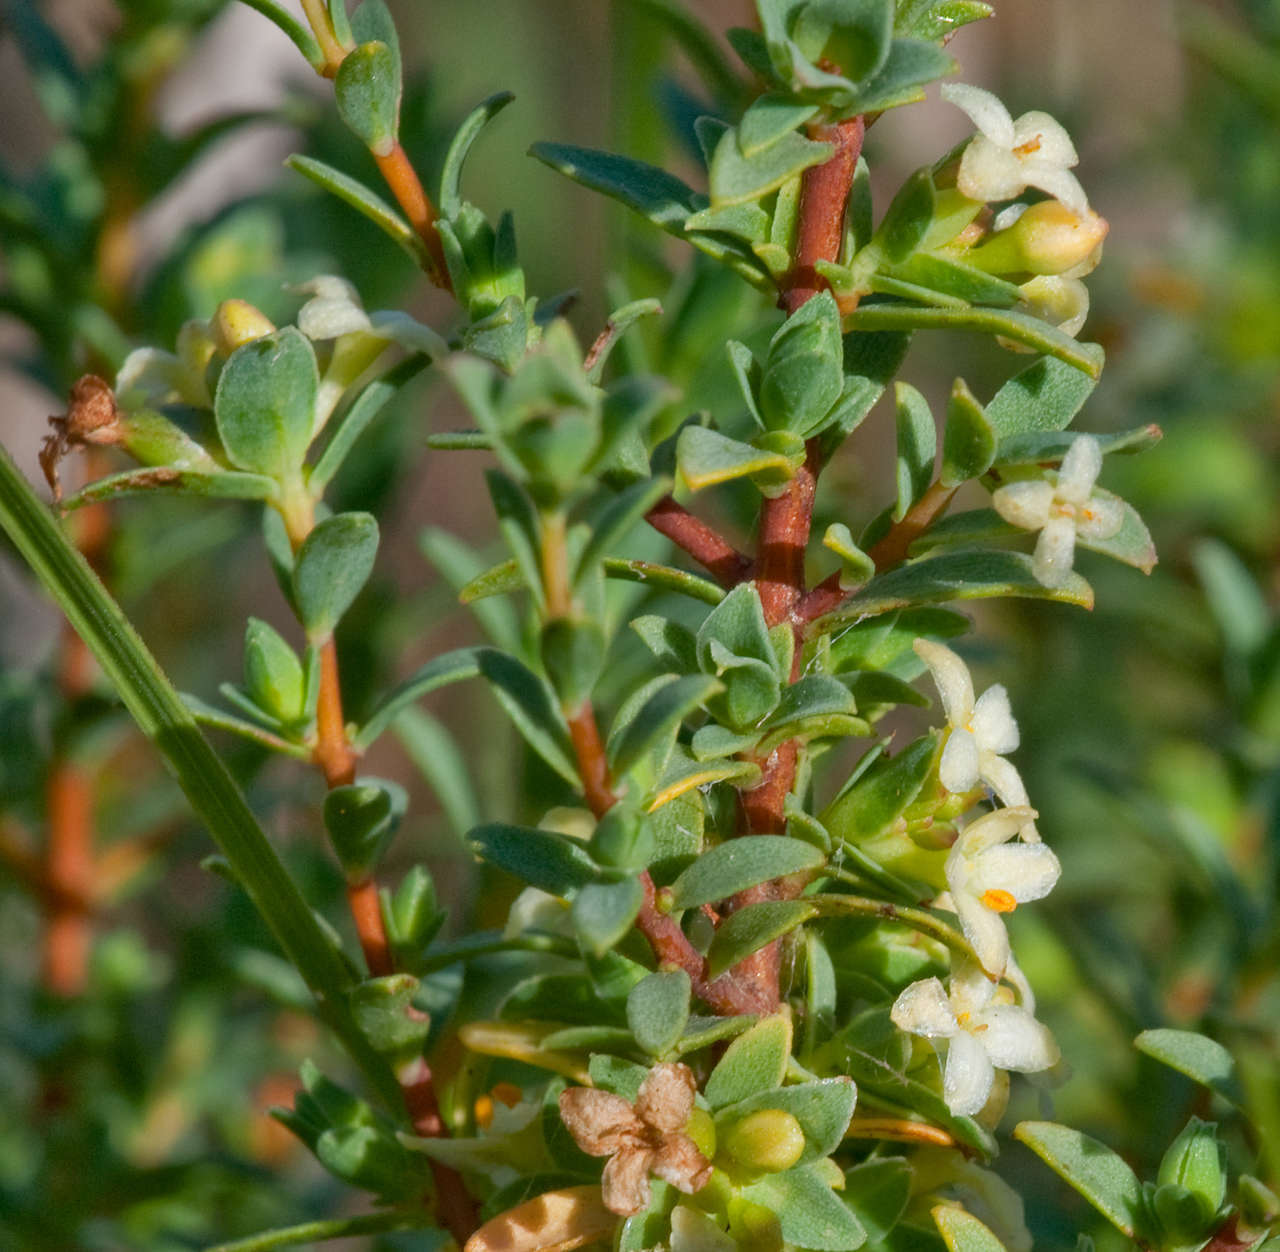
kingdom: Plantae
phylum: Tracheophyta
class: Magnoliopsida
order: Malvales
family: Thymelaeaceae
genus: Pimelea
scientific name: Pimelea spinescens
